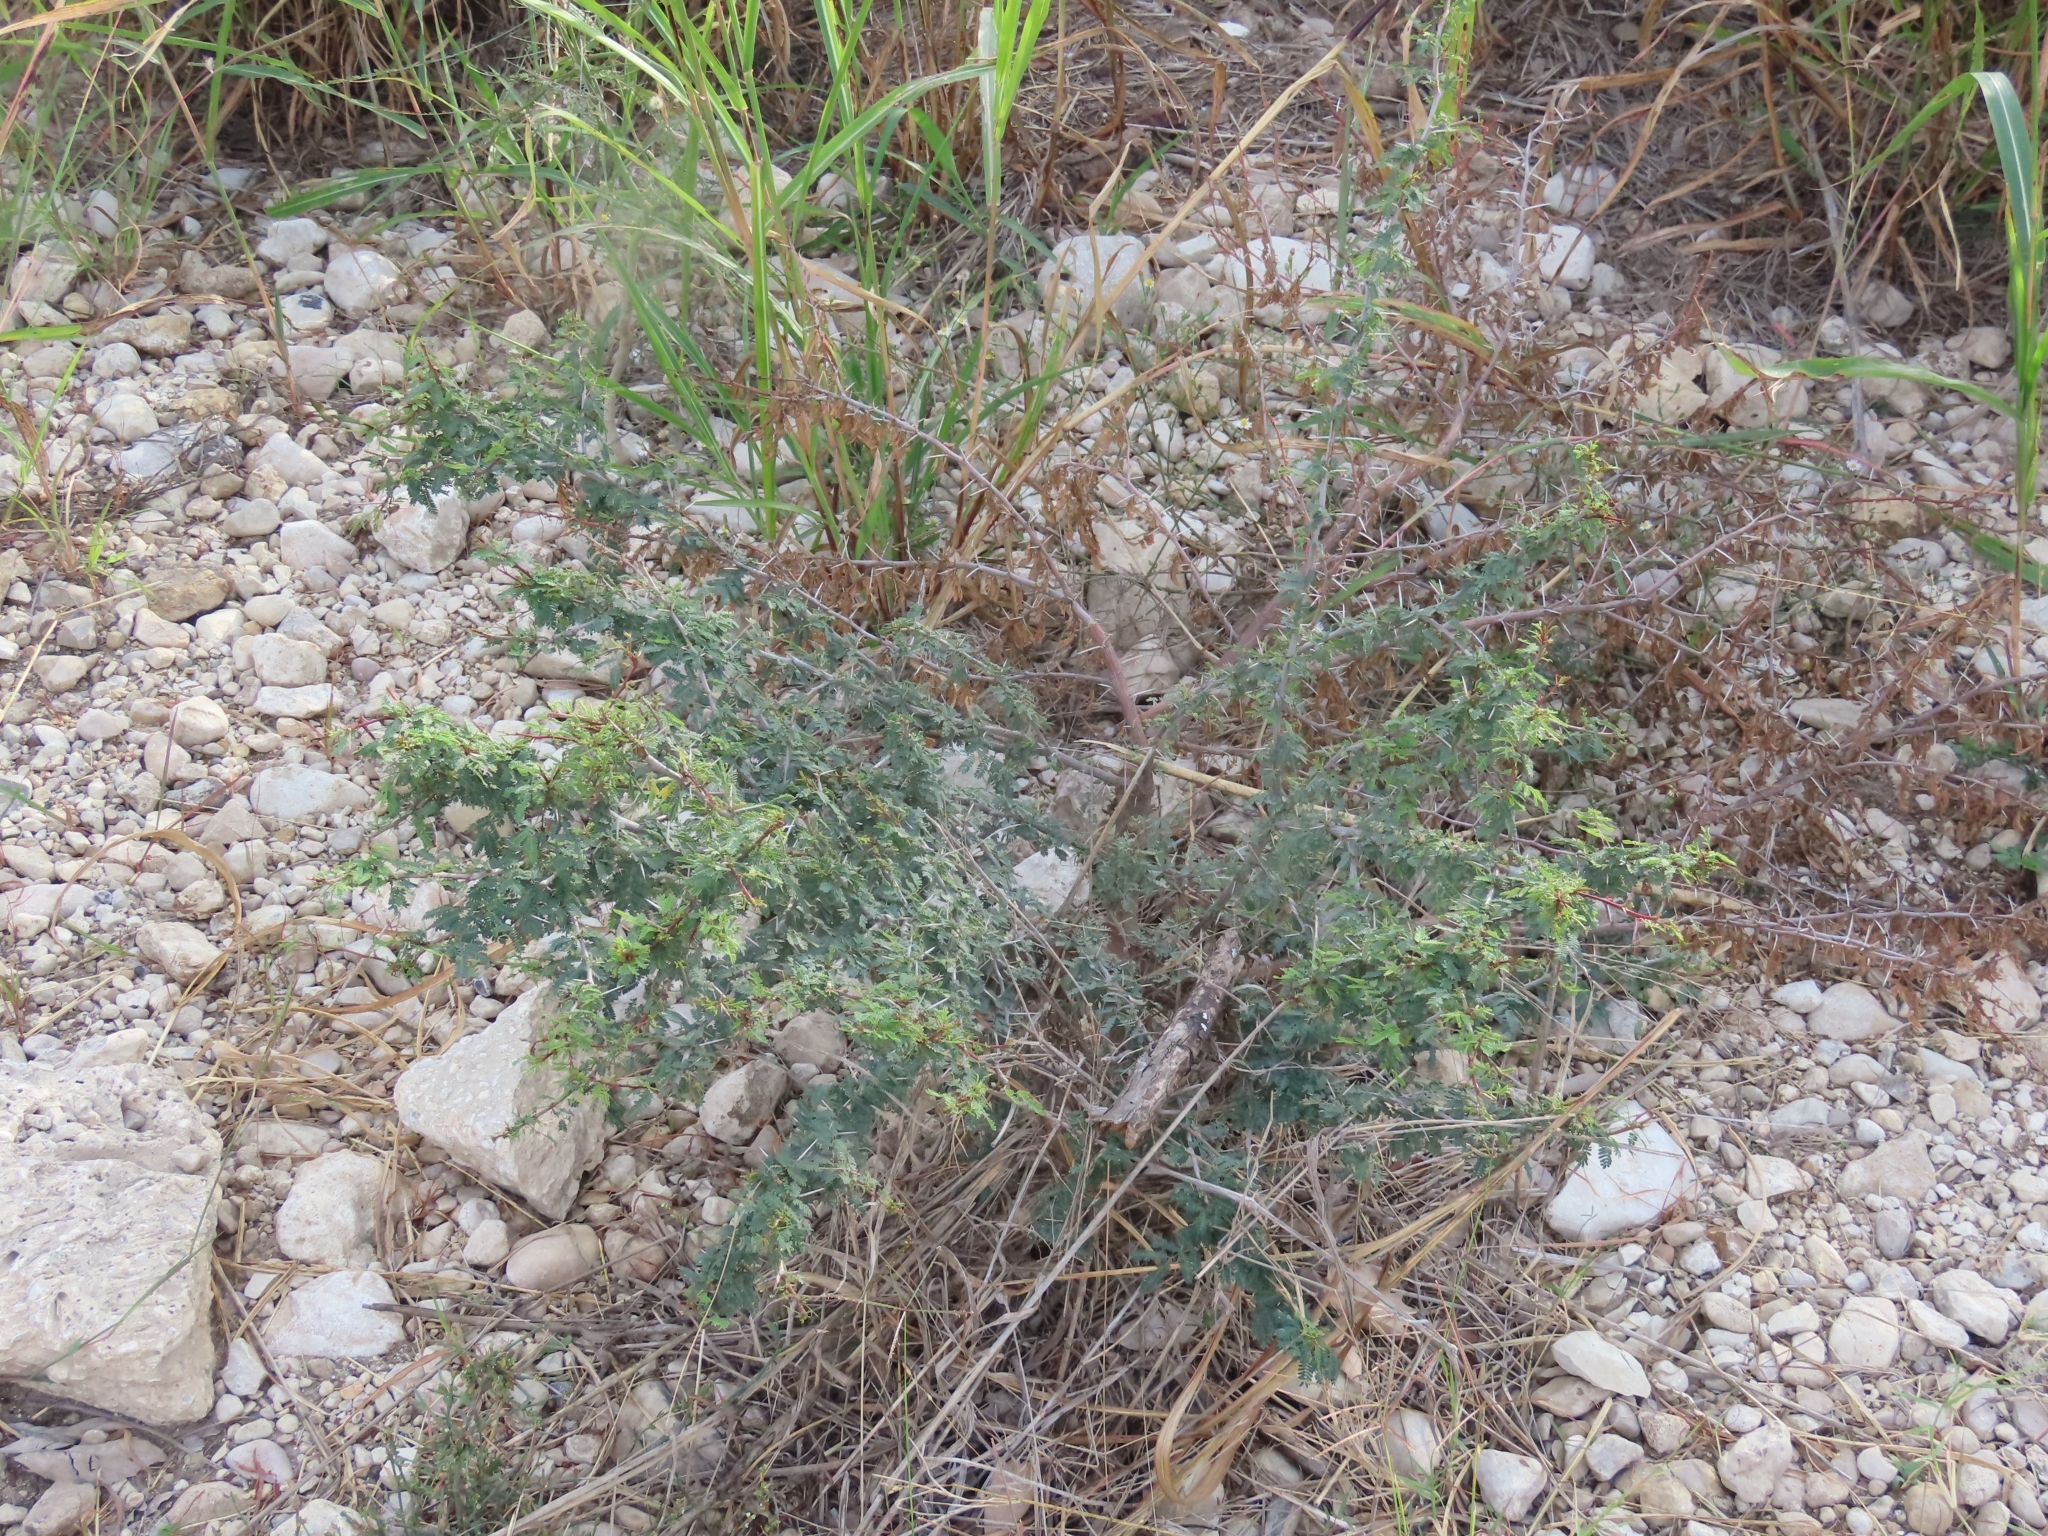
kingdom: Plantae
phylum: Tracheophyta
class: Magnoliopsida
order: Fabales
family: Fabaceae
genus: Vachellia
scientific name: Vachellia farnesiana
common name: Sweet acacia
